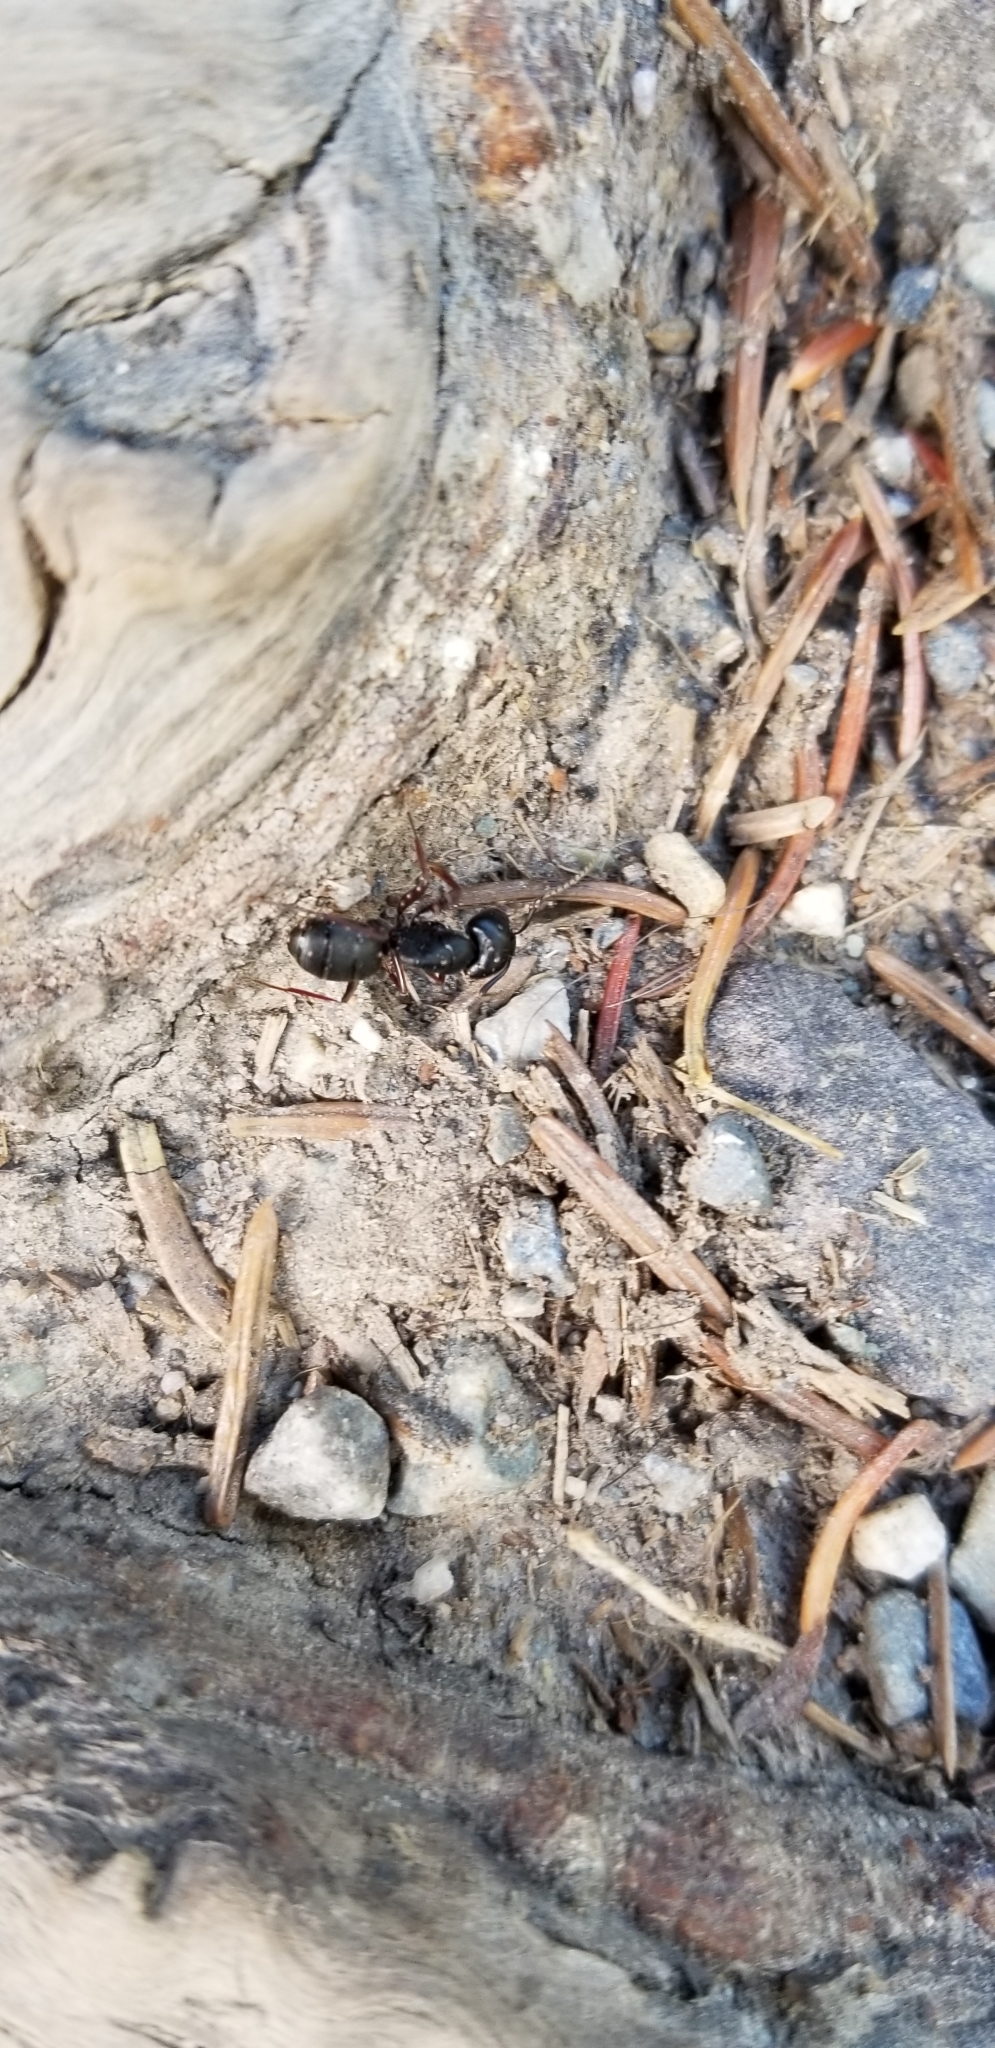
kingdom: Animalia
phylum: Arthropoda
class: Insecta
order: Hymenoptera
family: Formicidae
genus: Camponotus
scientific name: Camponotus herculeanus
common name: Hercules ant
